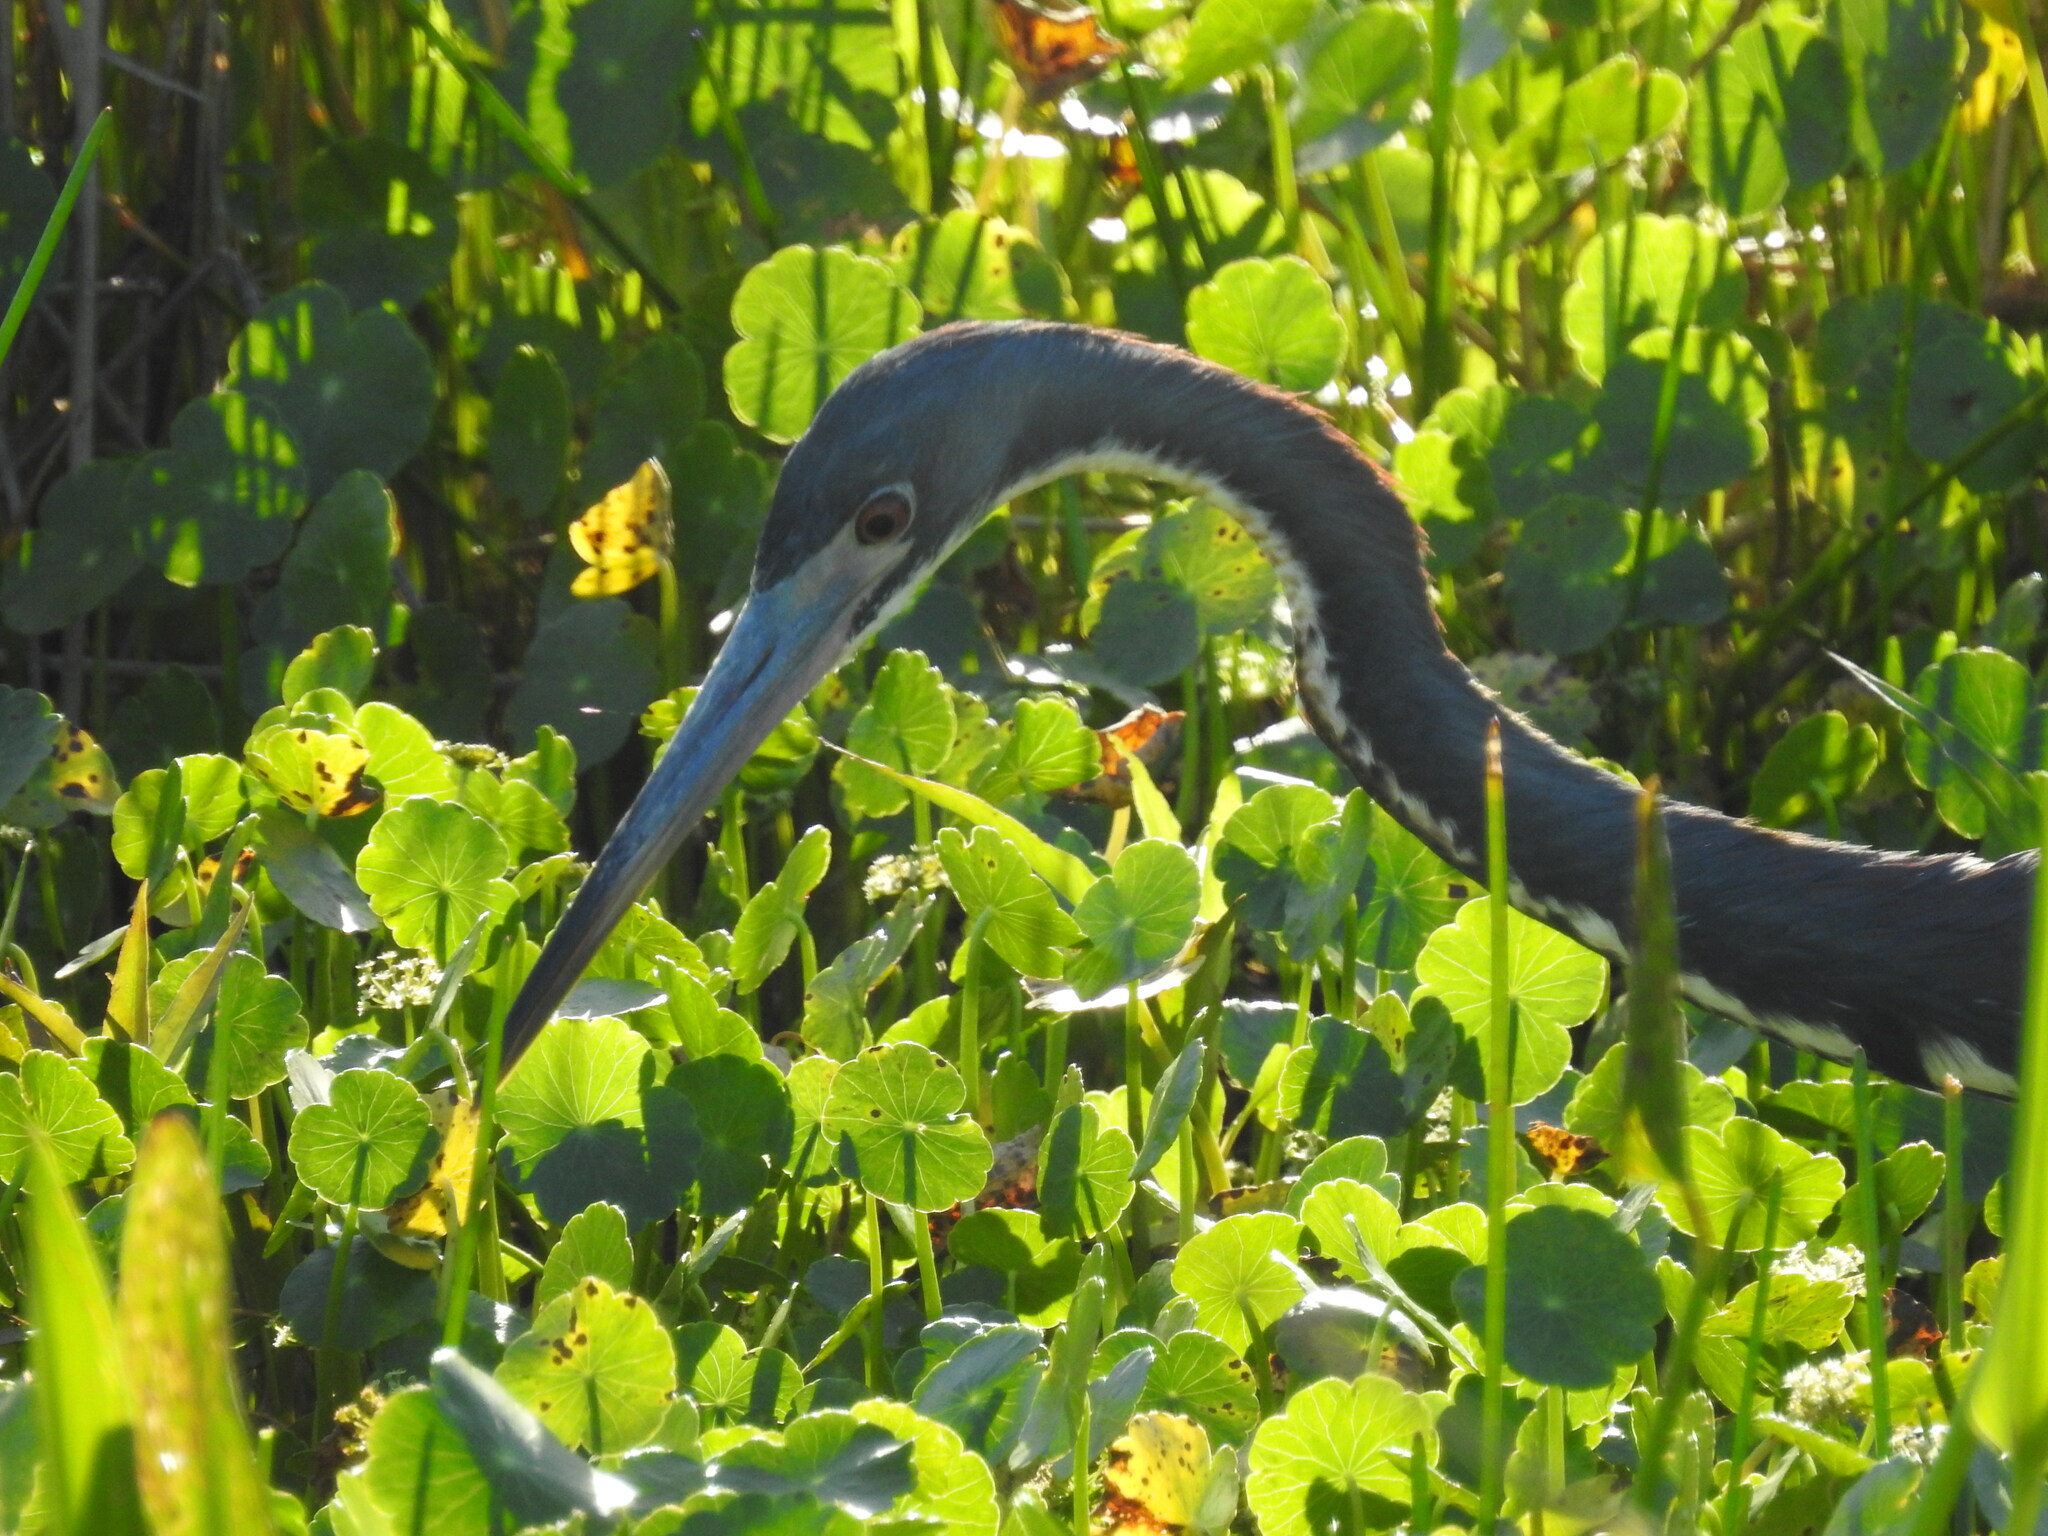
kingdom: Animalia
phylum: Chordata
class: Aves
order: Pelecaniformes
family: Ardeidae
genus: Egretta
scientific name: Egretta tricolor
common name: Tricolored heron
